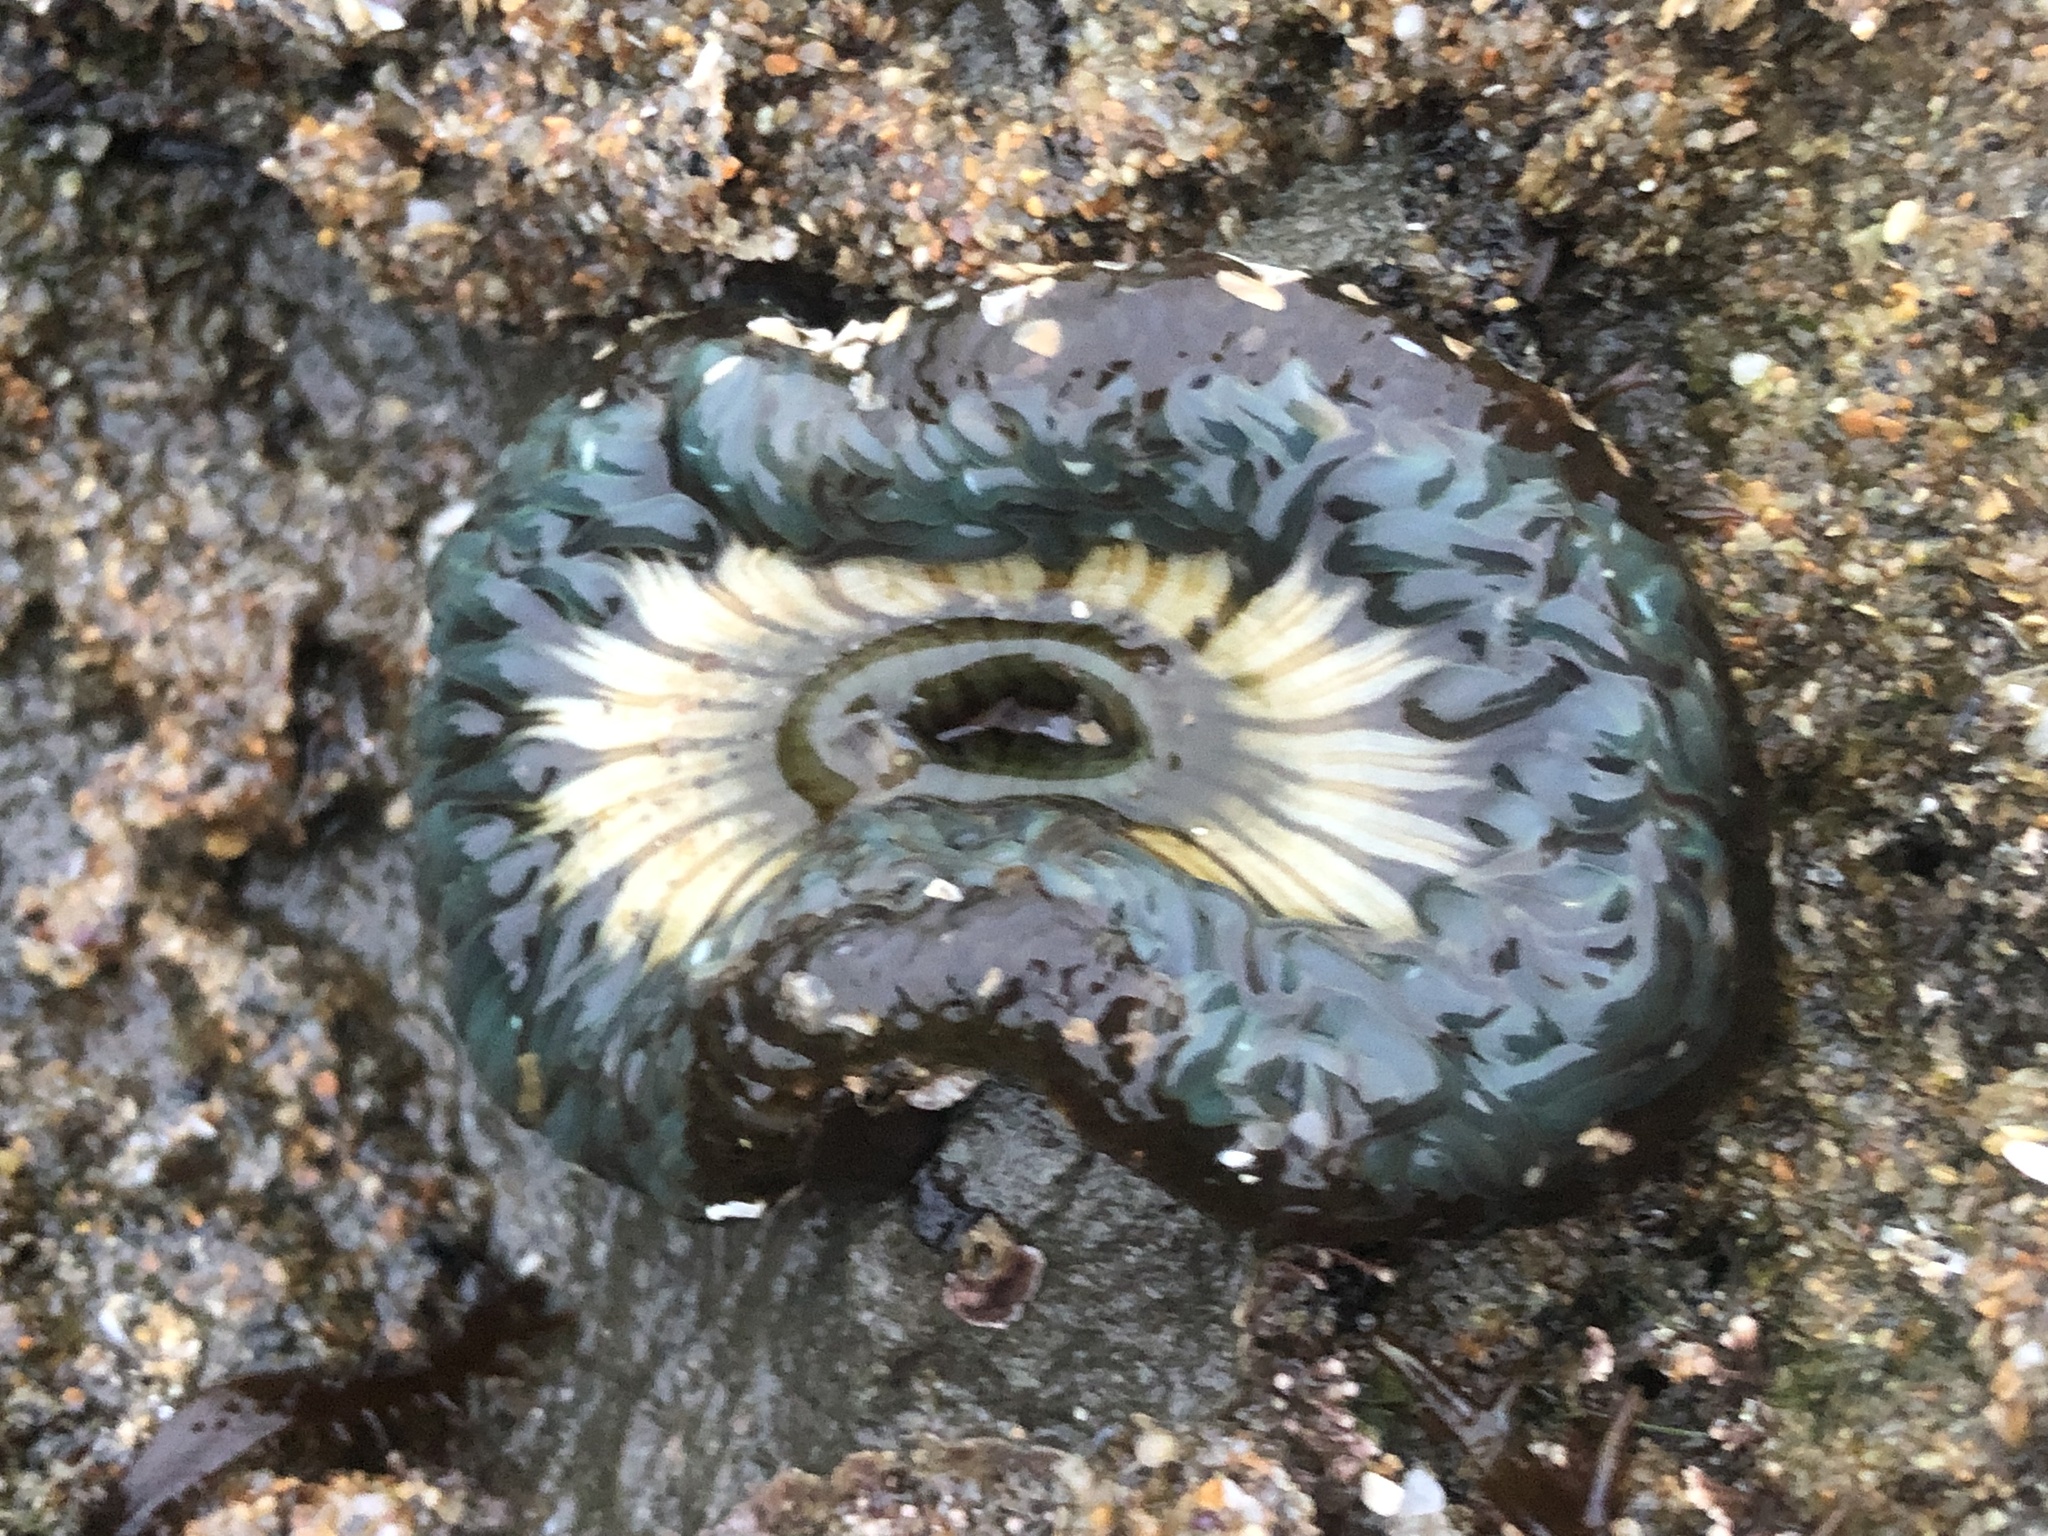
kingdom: Animalia
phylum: Cnidaria
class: Anthozoa
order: Actiniaria
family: Actiniidae
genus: Anthopleura
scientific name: Anthopleura sola
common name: Sun anemone
